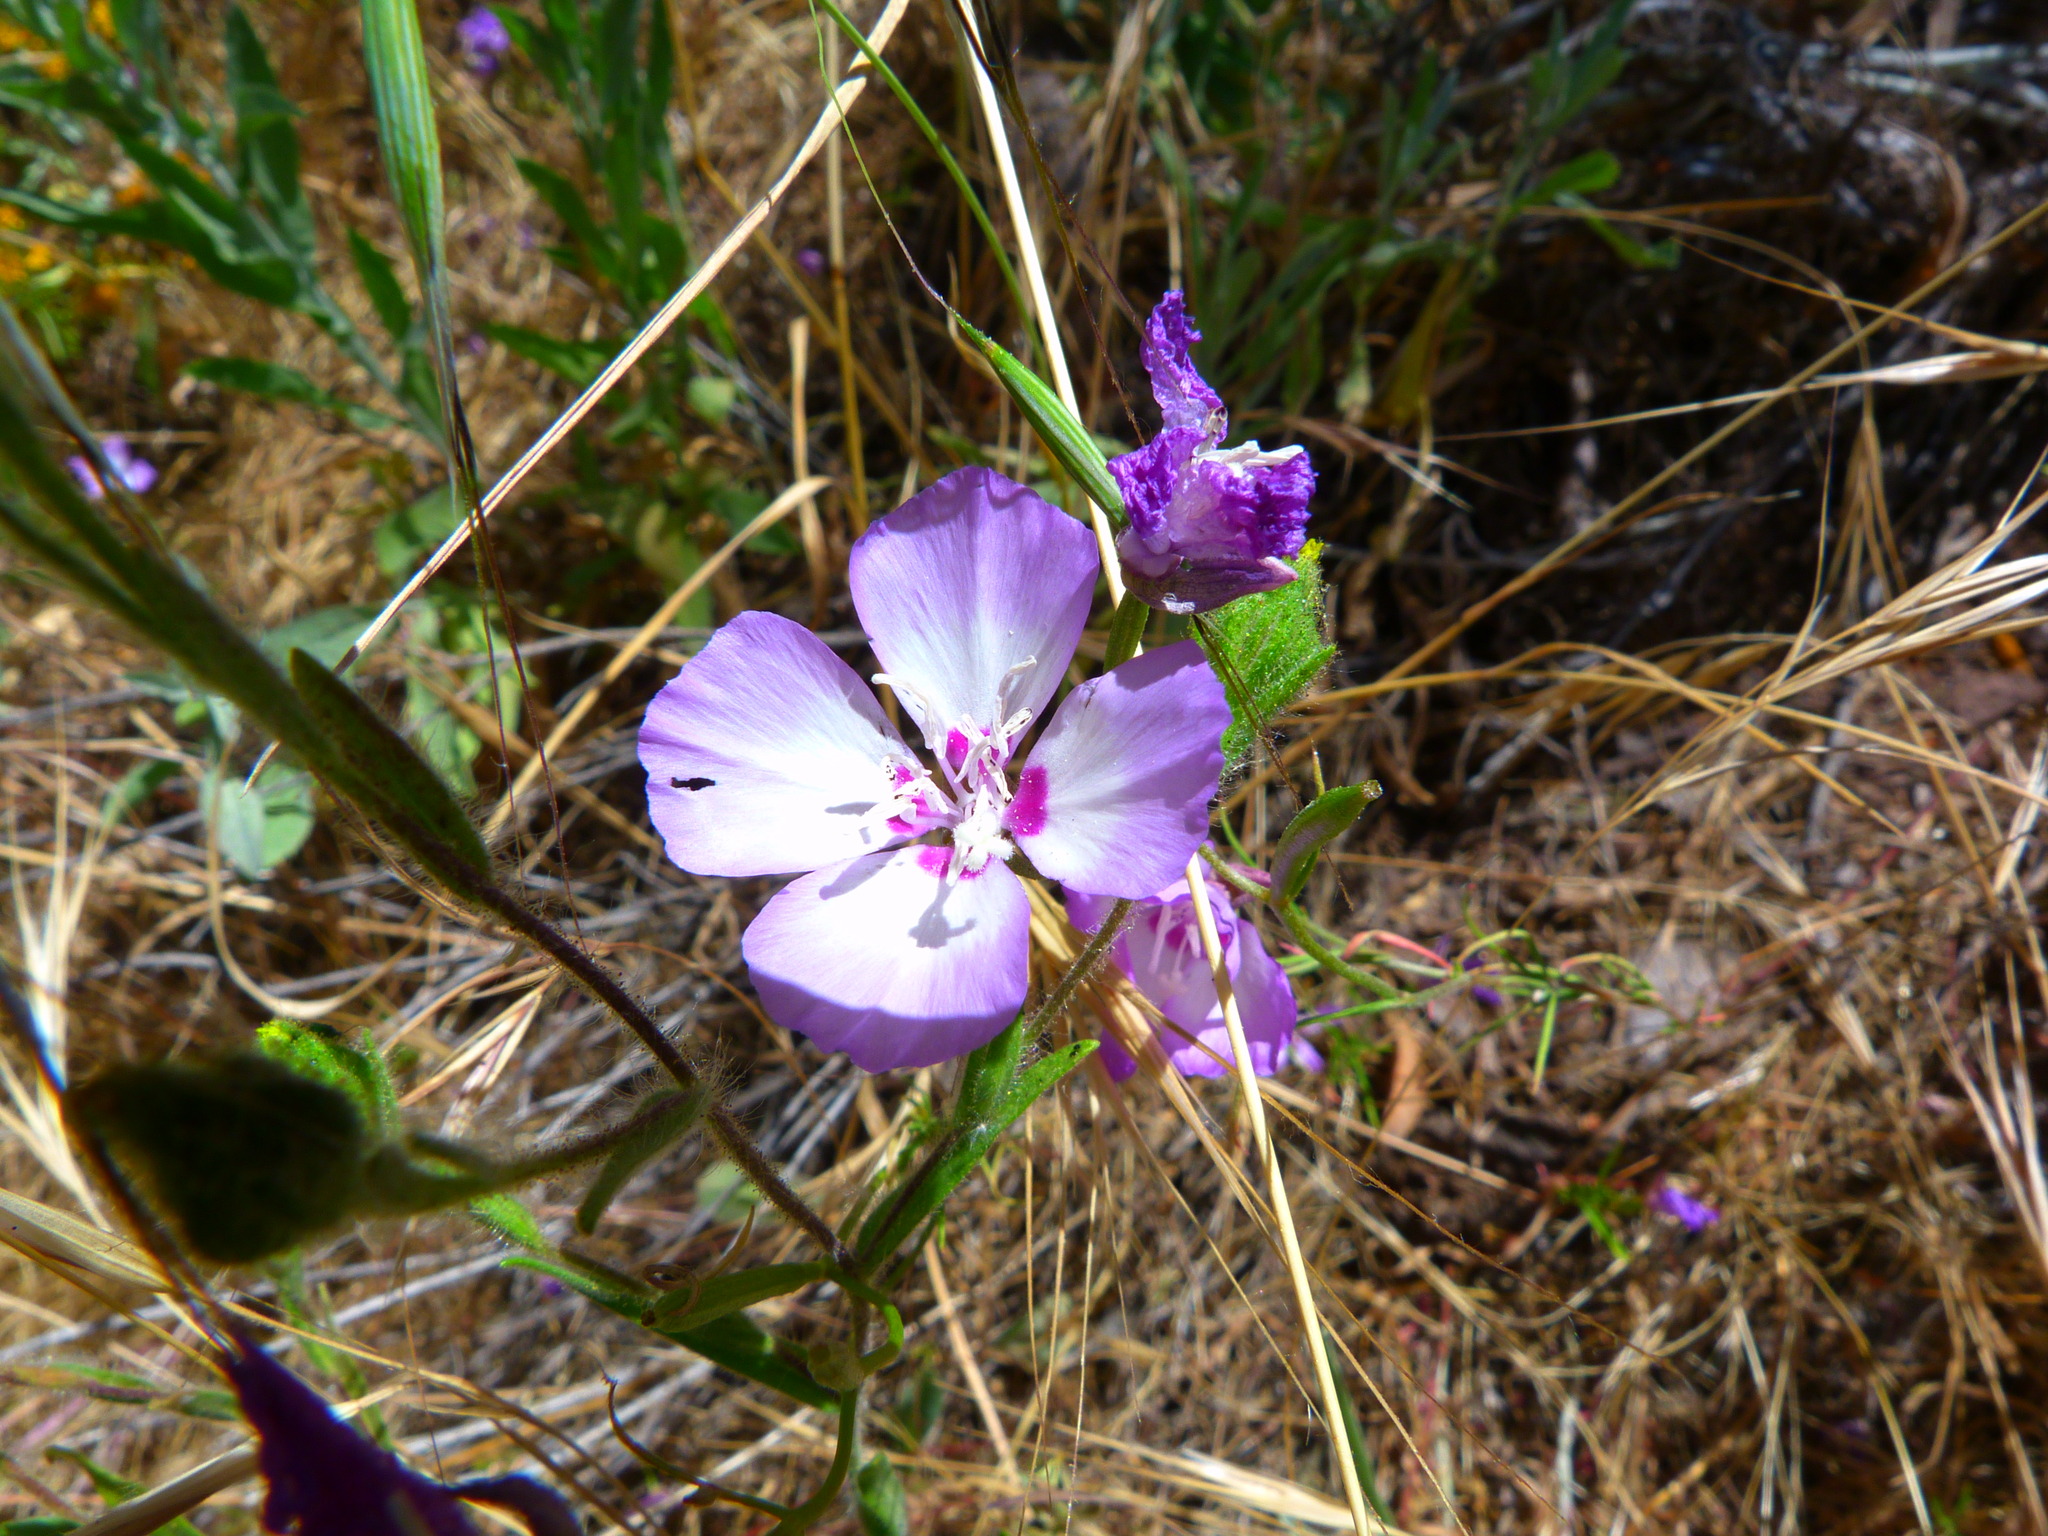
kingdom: Plantae
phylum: Tracheophyta
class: Magnoliopsida
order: Myrtales
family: Onagraceae
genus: Clarkia
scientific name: Clarkia cylindrica
